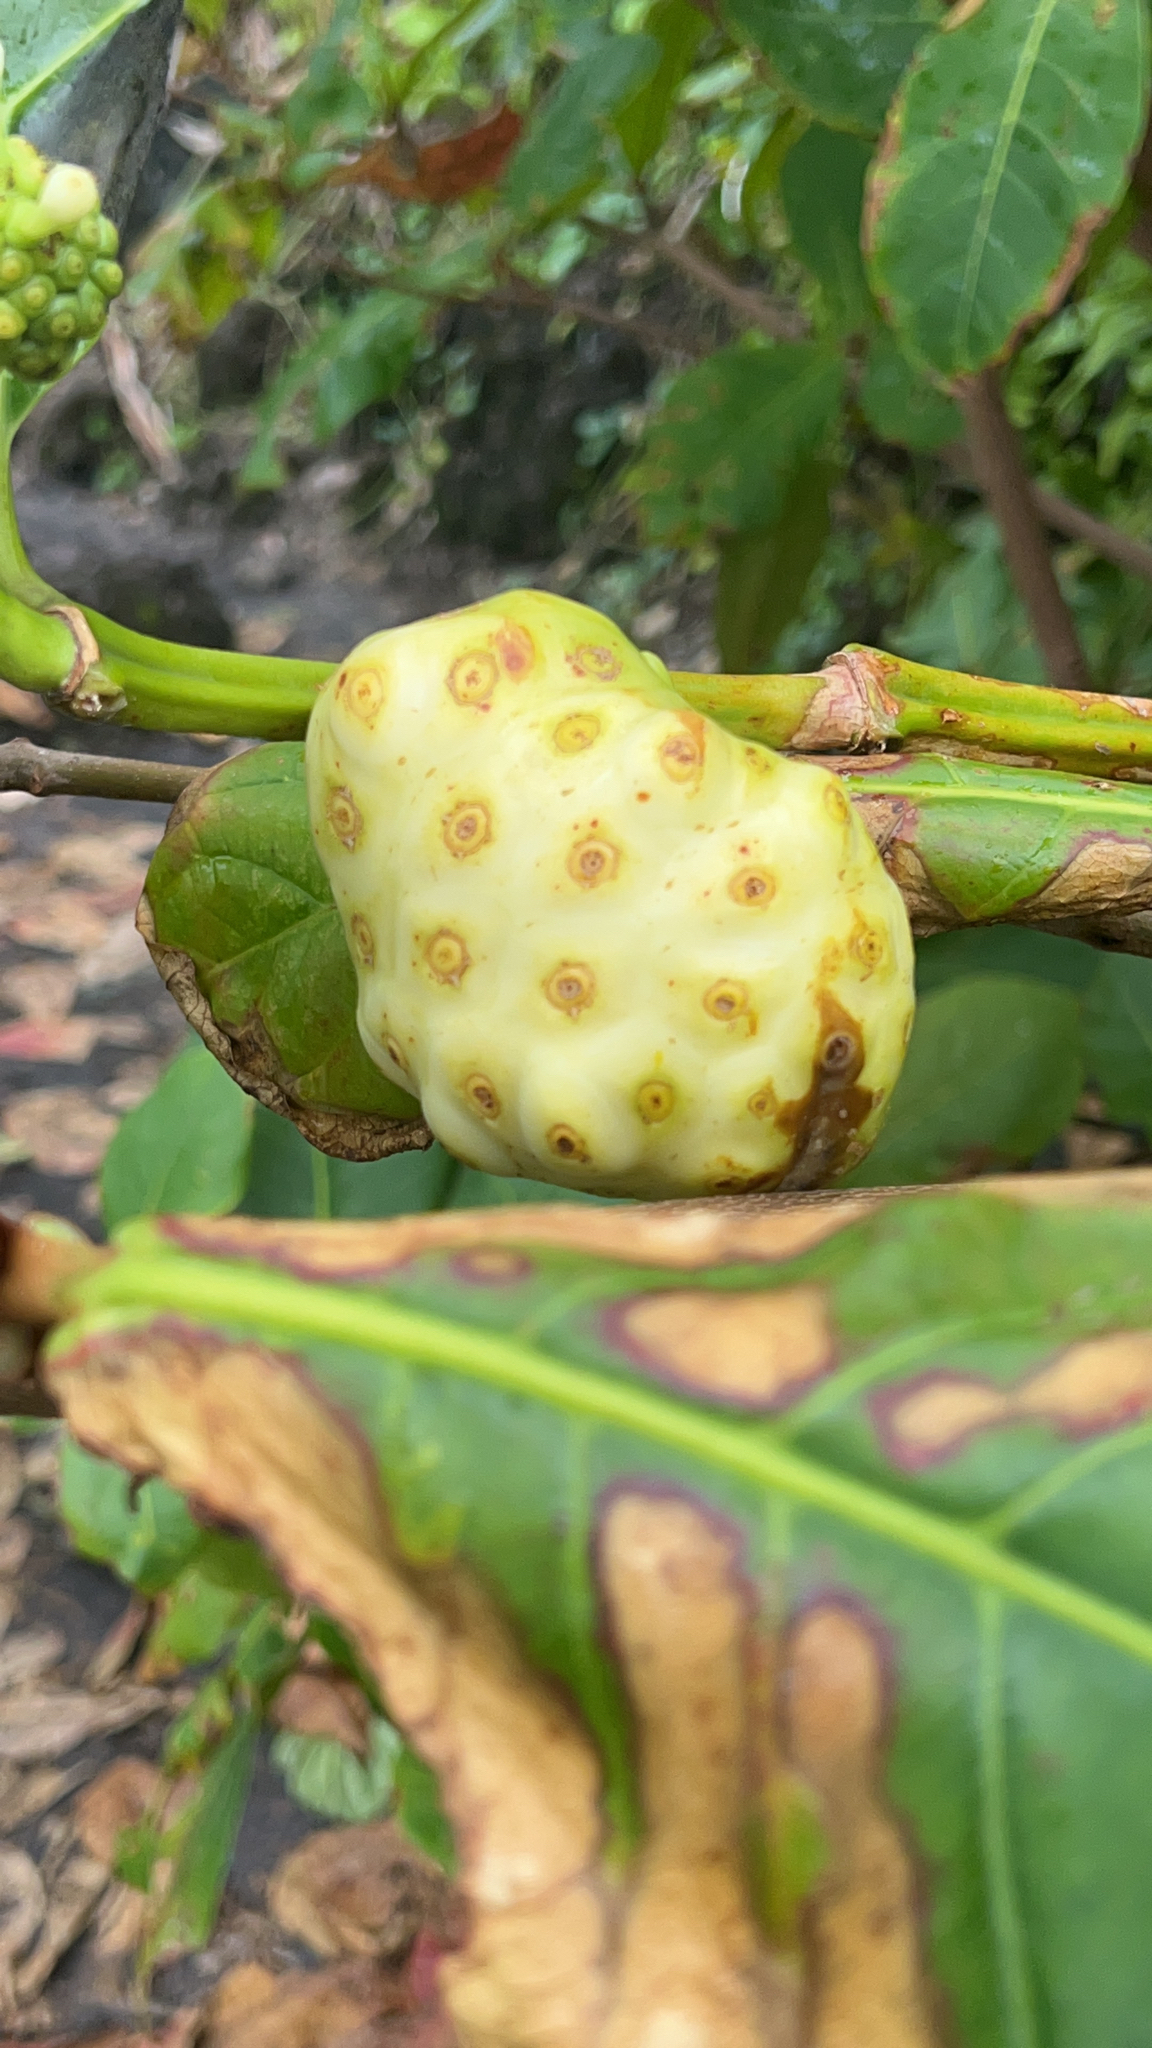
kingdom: Plantae
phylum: Tracheophyta
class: Magnoliopsida
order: Gentianales
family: Rubiaceae
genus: Morinda
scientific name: Morinda citrifolia
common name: Indian-mulberry
